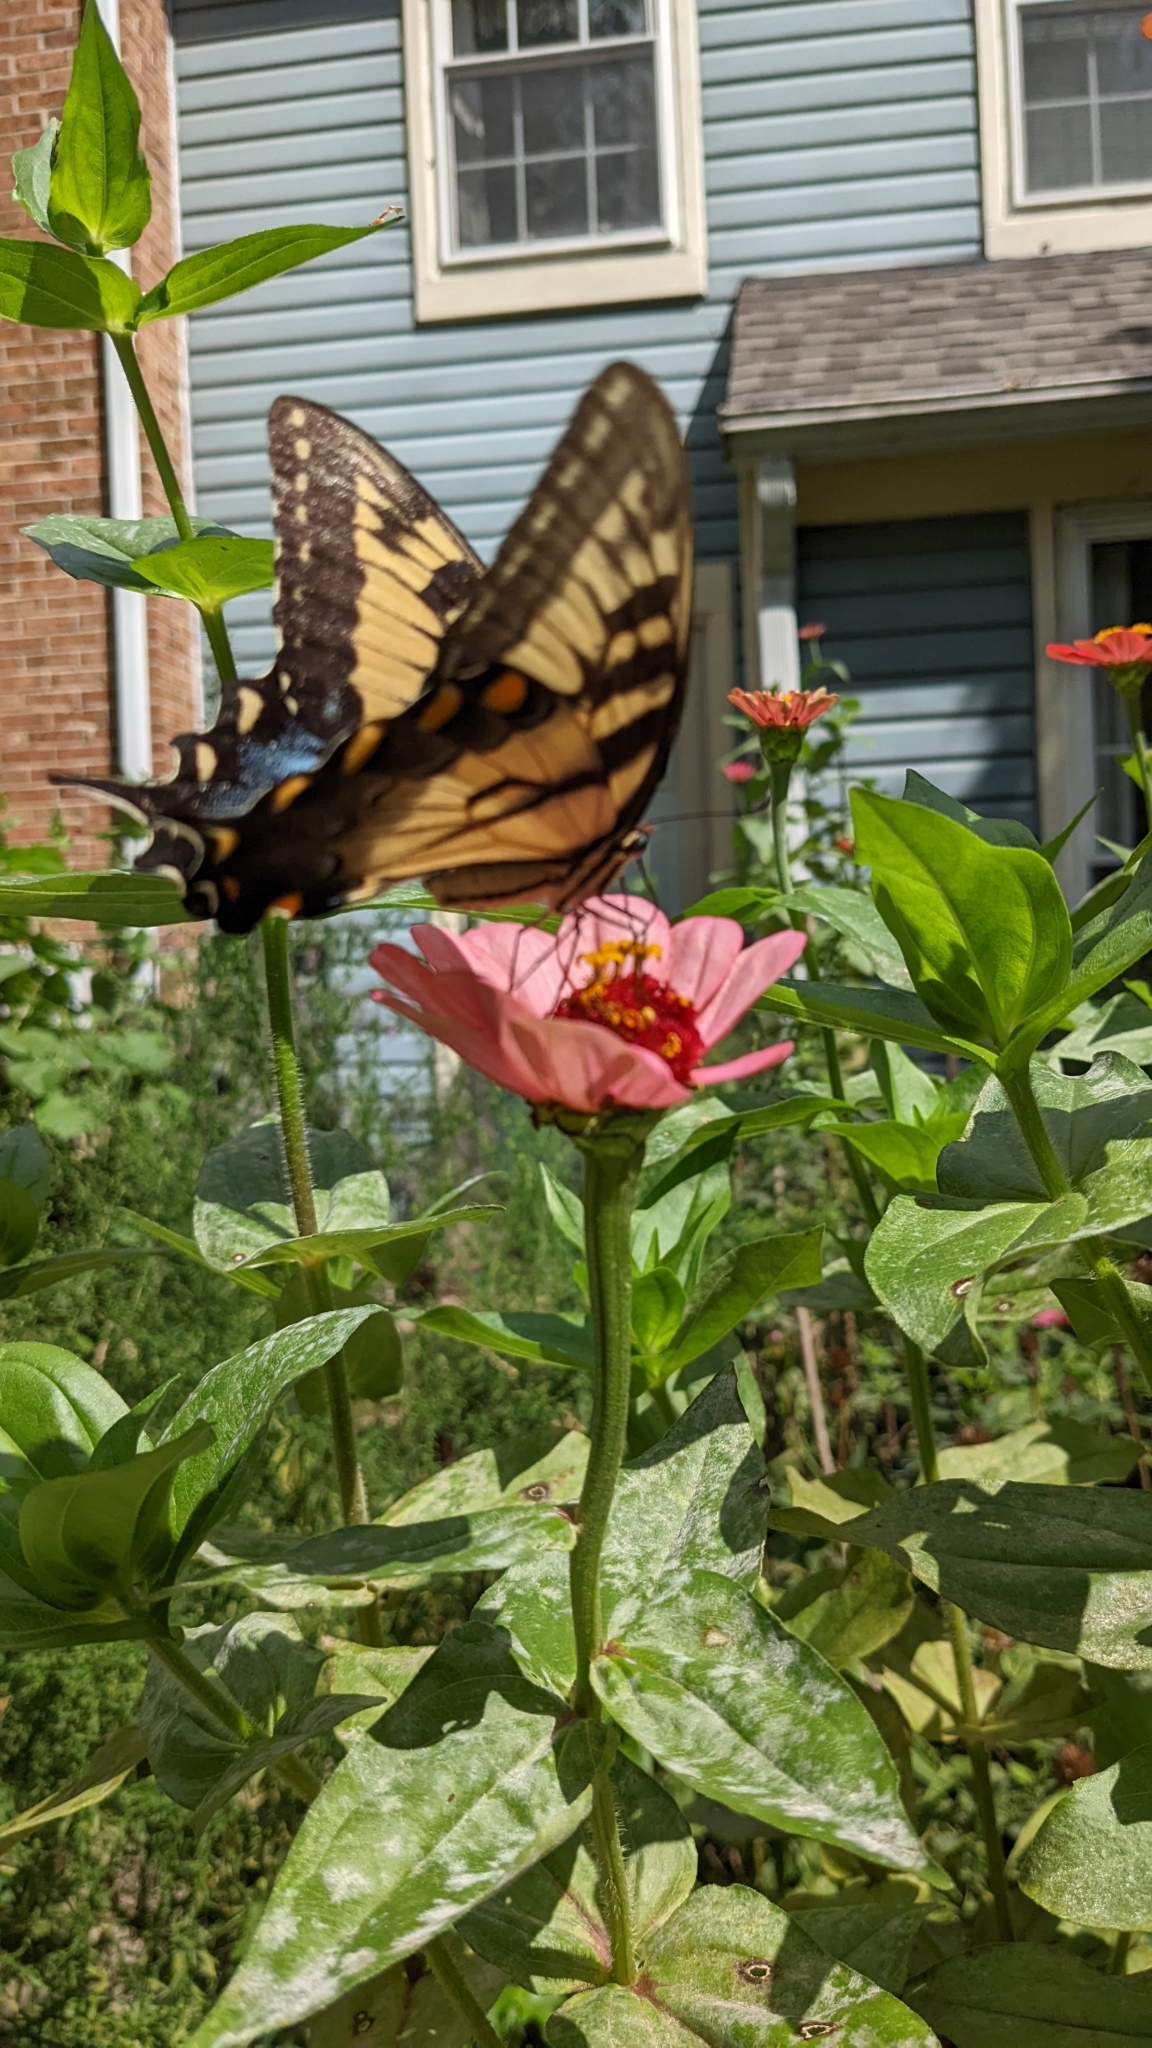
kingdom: Animalia
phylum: Arthropoda
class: Insecta
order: Lepidoptera
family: Papilionidae
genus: Papilio
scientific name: Papilio glaucus
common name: Tiger swallowtail
